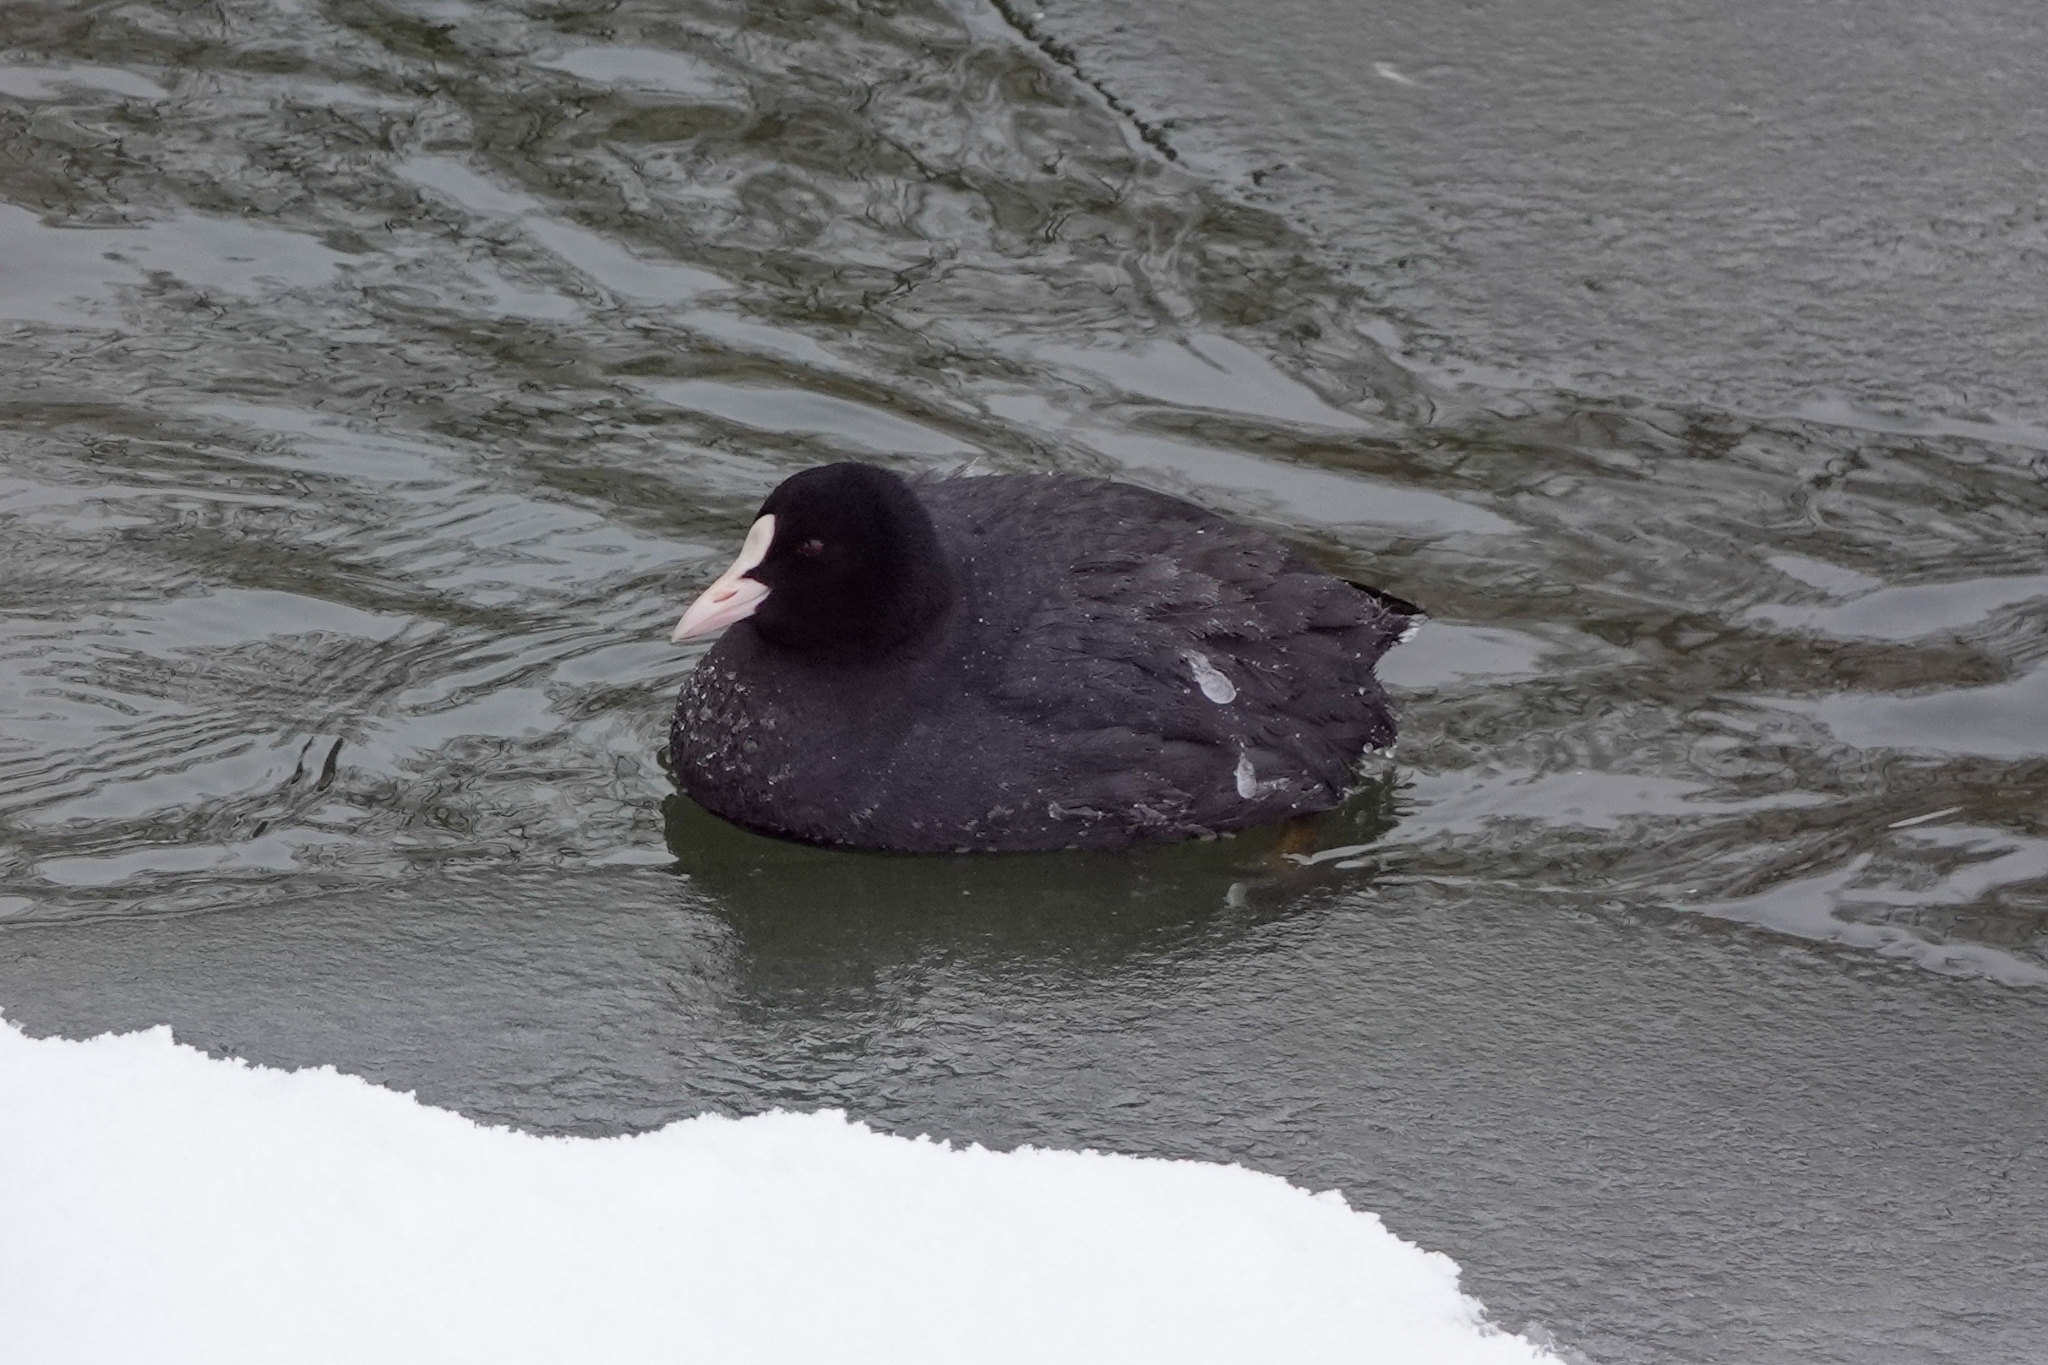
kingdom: Animalia
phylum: Chordata
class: Aves
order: Gruiformes
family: Rallidae
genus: Fulica
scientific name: Fulica atra
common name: Eurasian coot
